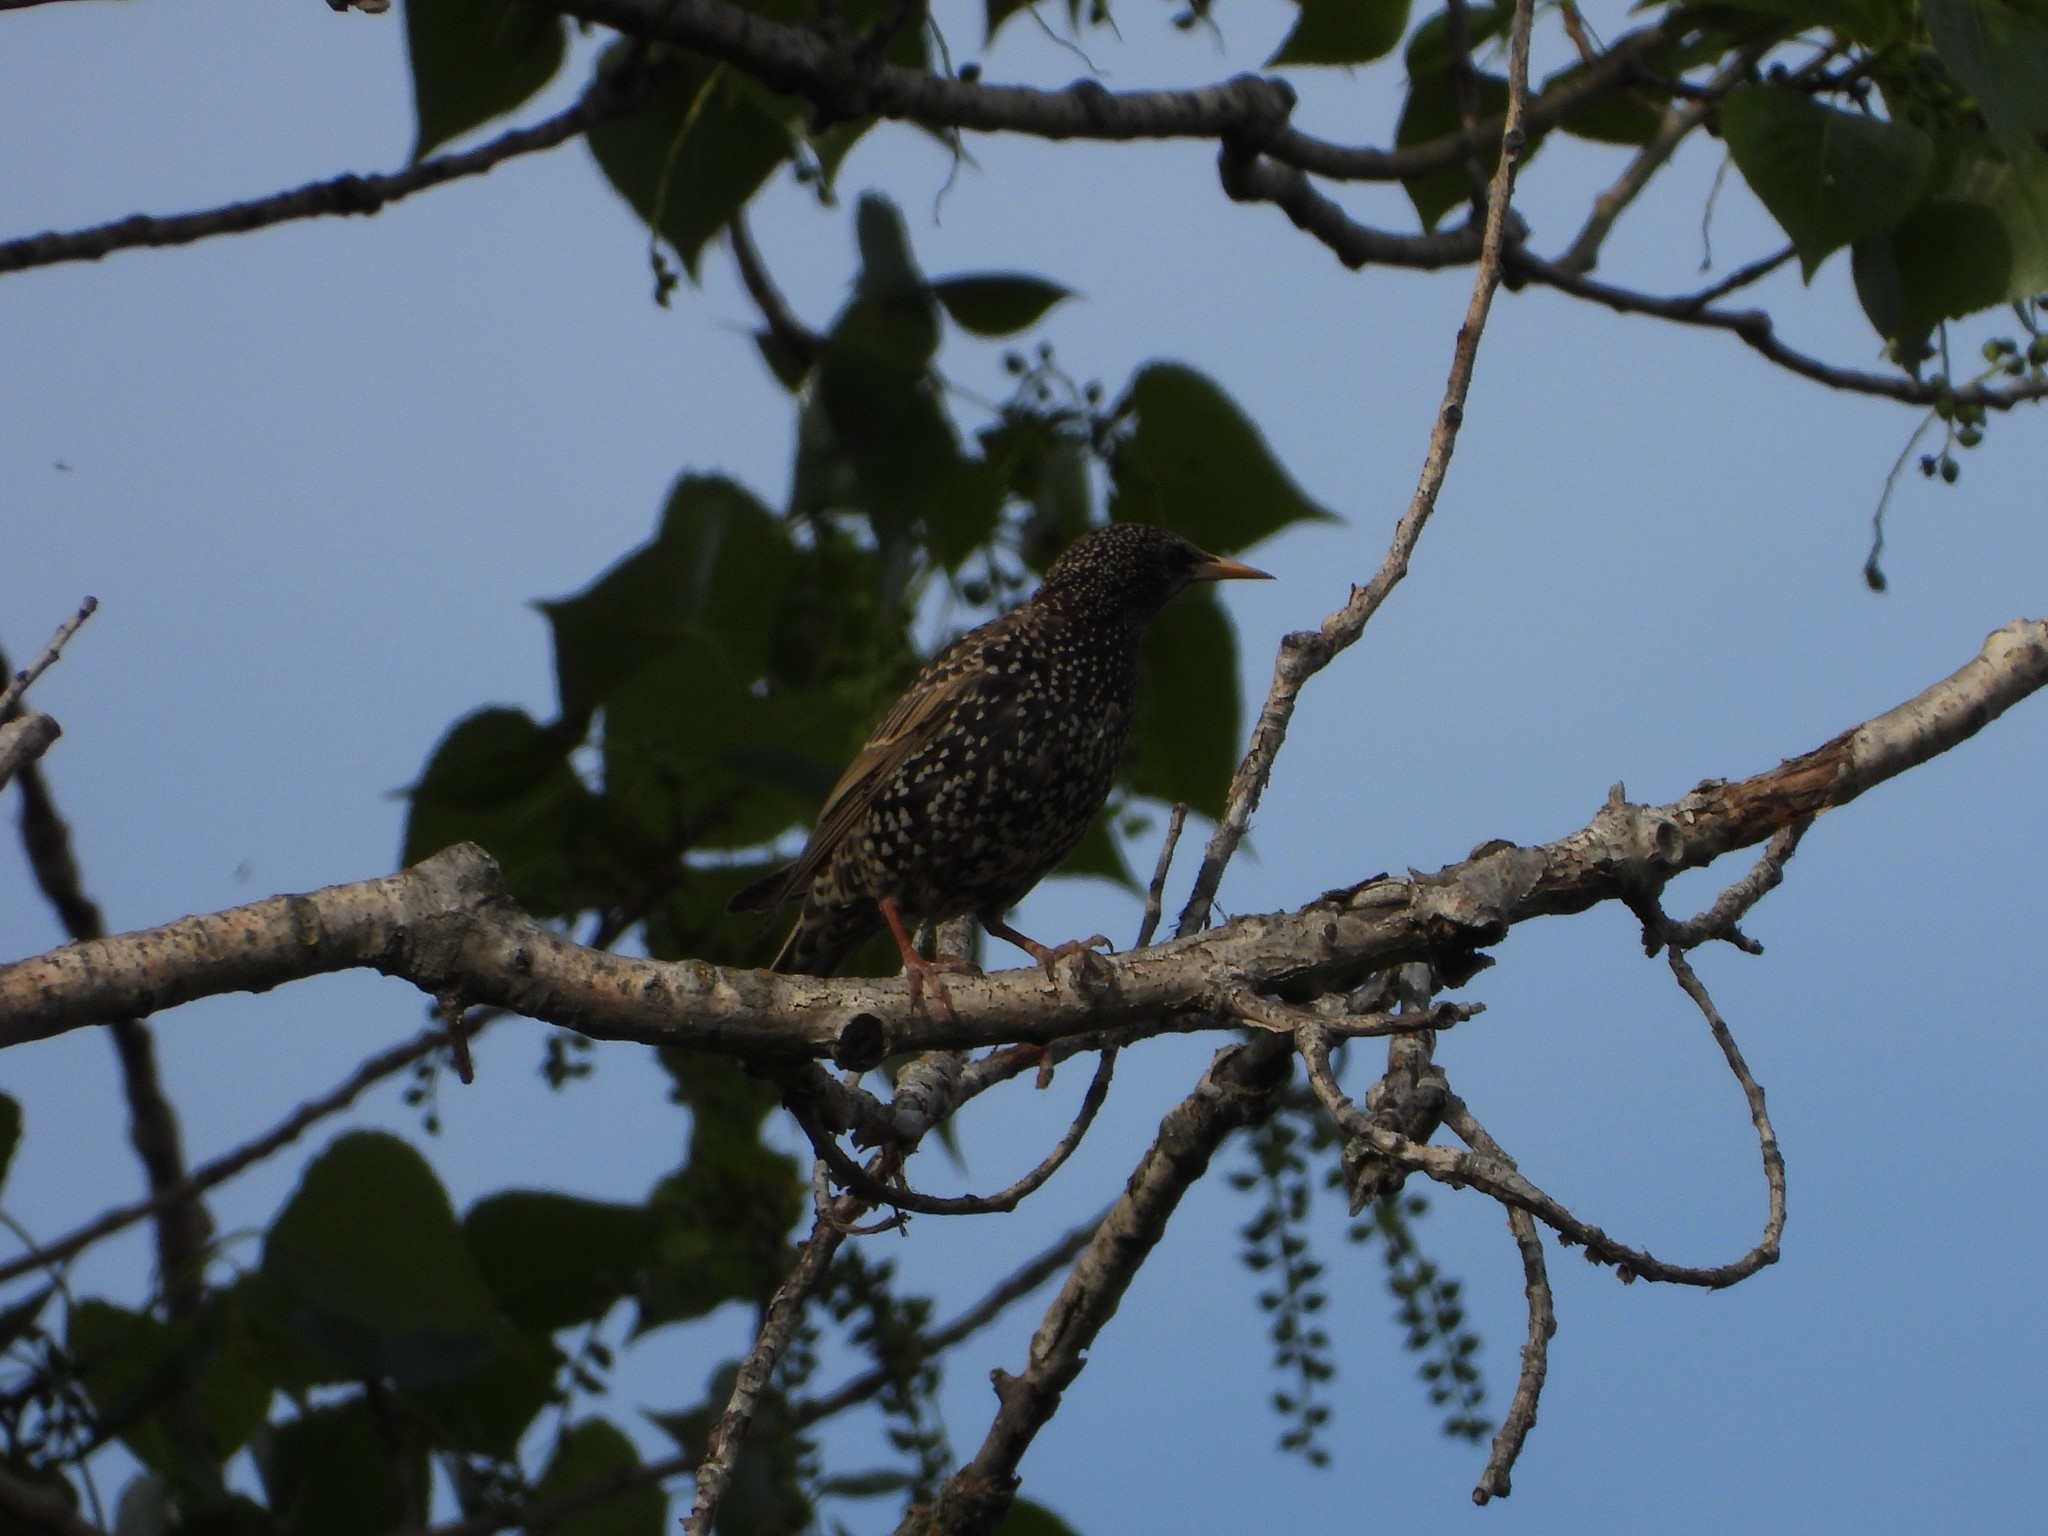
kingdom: Animalia
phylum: Chordata
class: Aves
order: Passeriformes
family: Sturnidae
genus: Sturnus
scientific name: Sturnus vulgaris
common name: Common starling
